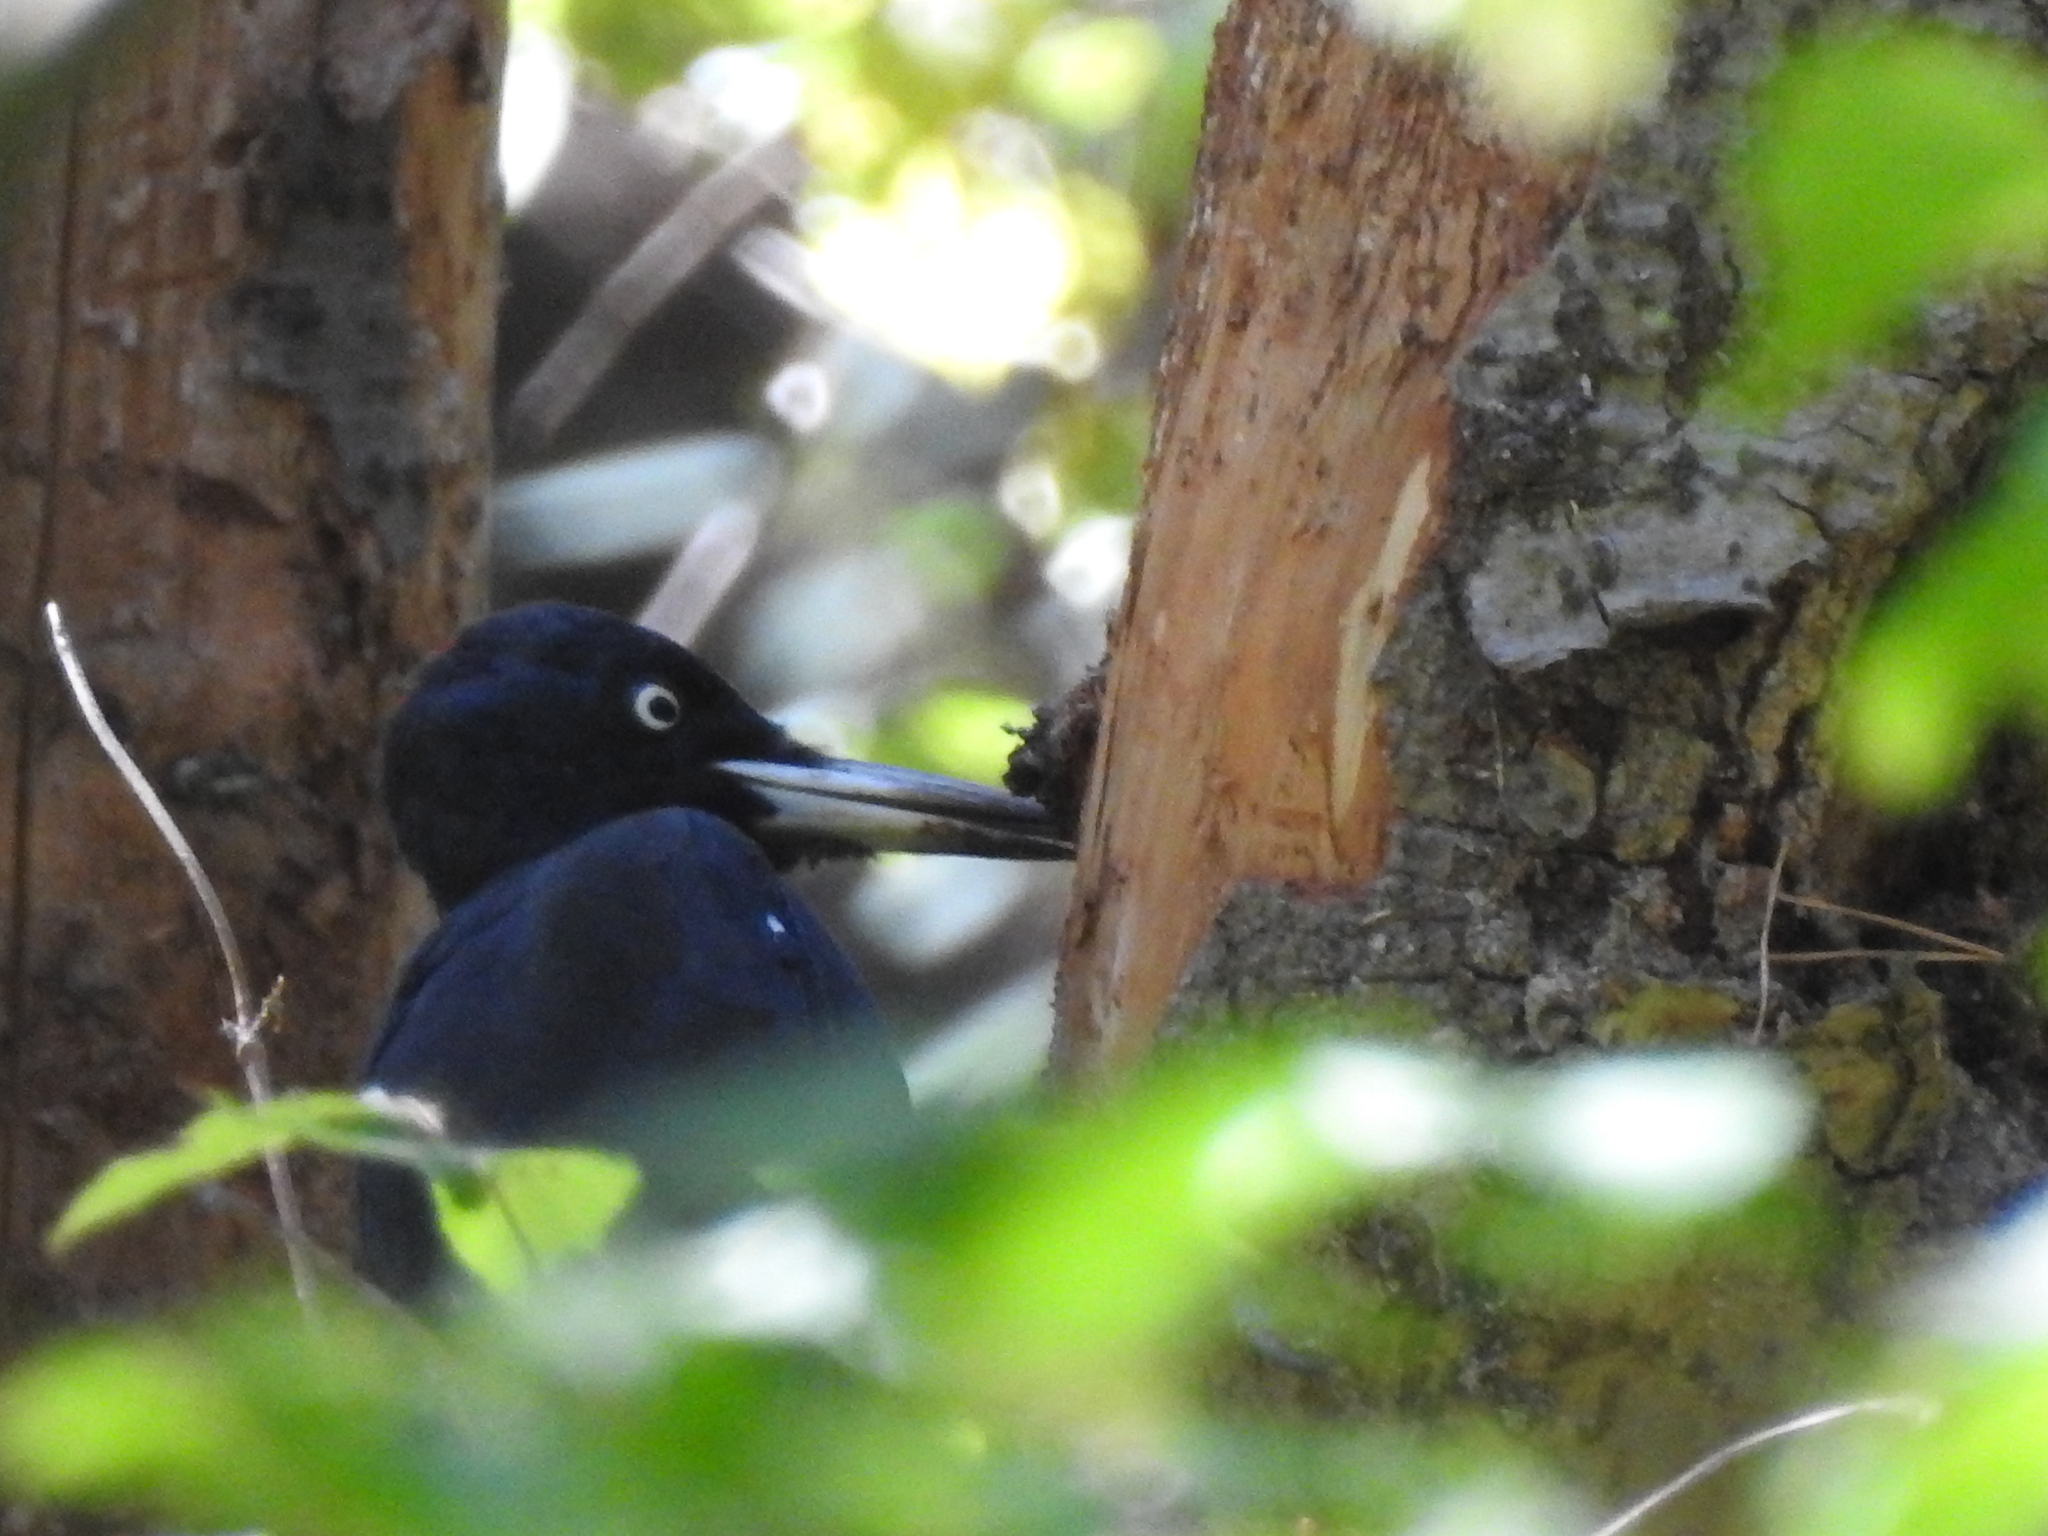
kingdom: Animalia
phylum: Chordata
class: Aves
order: Piciformes
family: Picidae
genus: Dryocopus
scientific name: Dryocopus martius
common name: Black woodpecker
